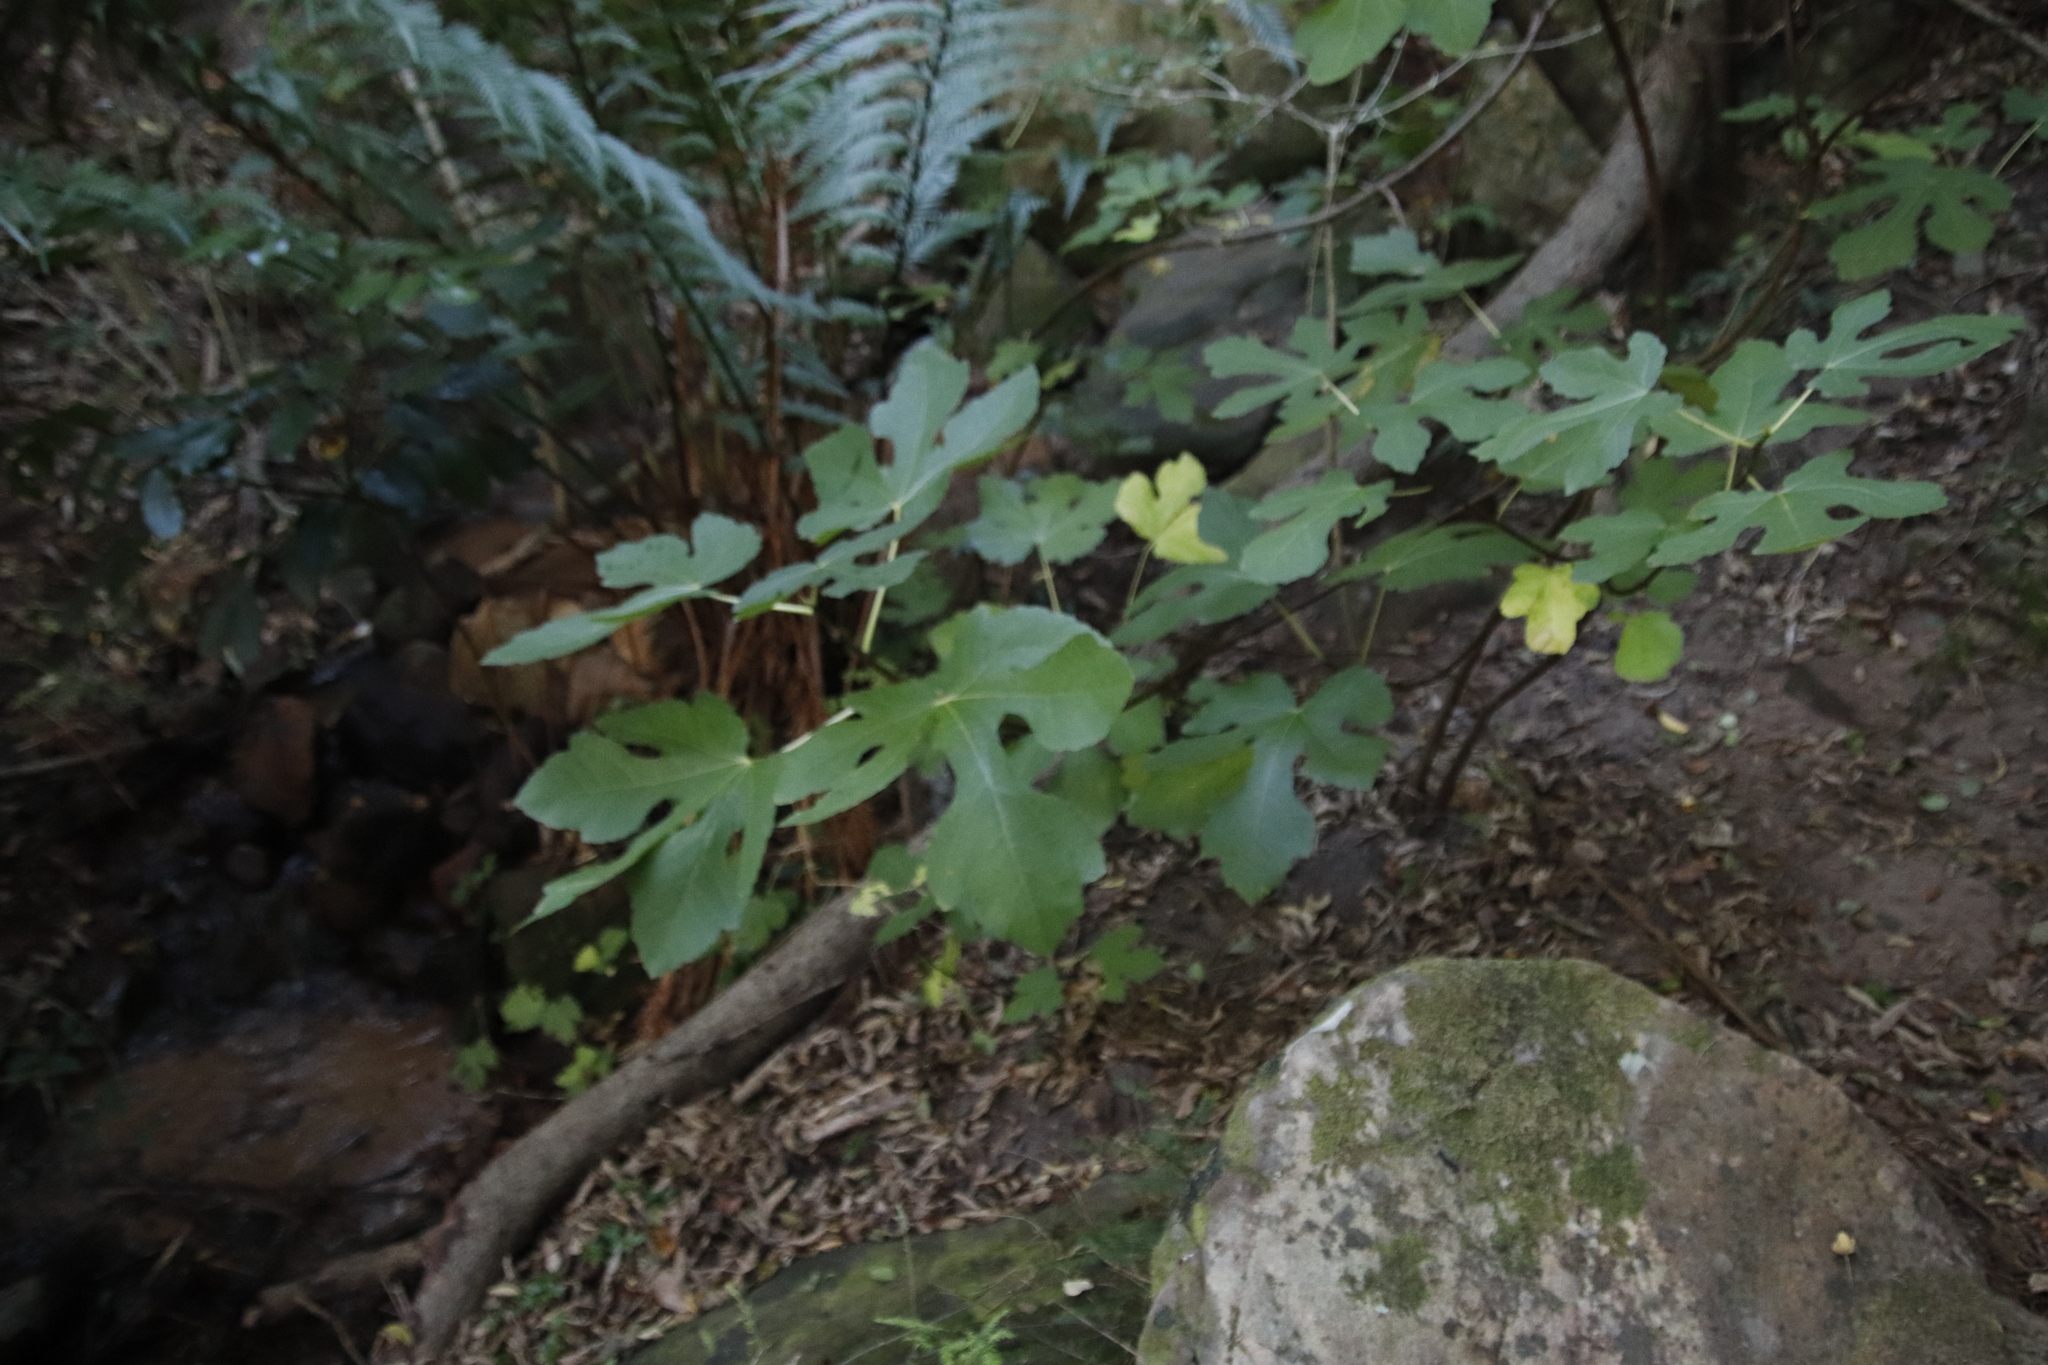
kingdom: Plantae
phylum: Tracheophyta
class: Magnoliopsida
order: Rosales
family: Moraceae
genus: Ficus
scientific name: Ficus carica
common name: Fig
